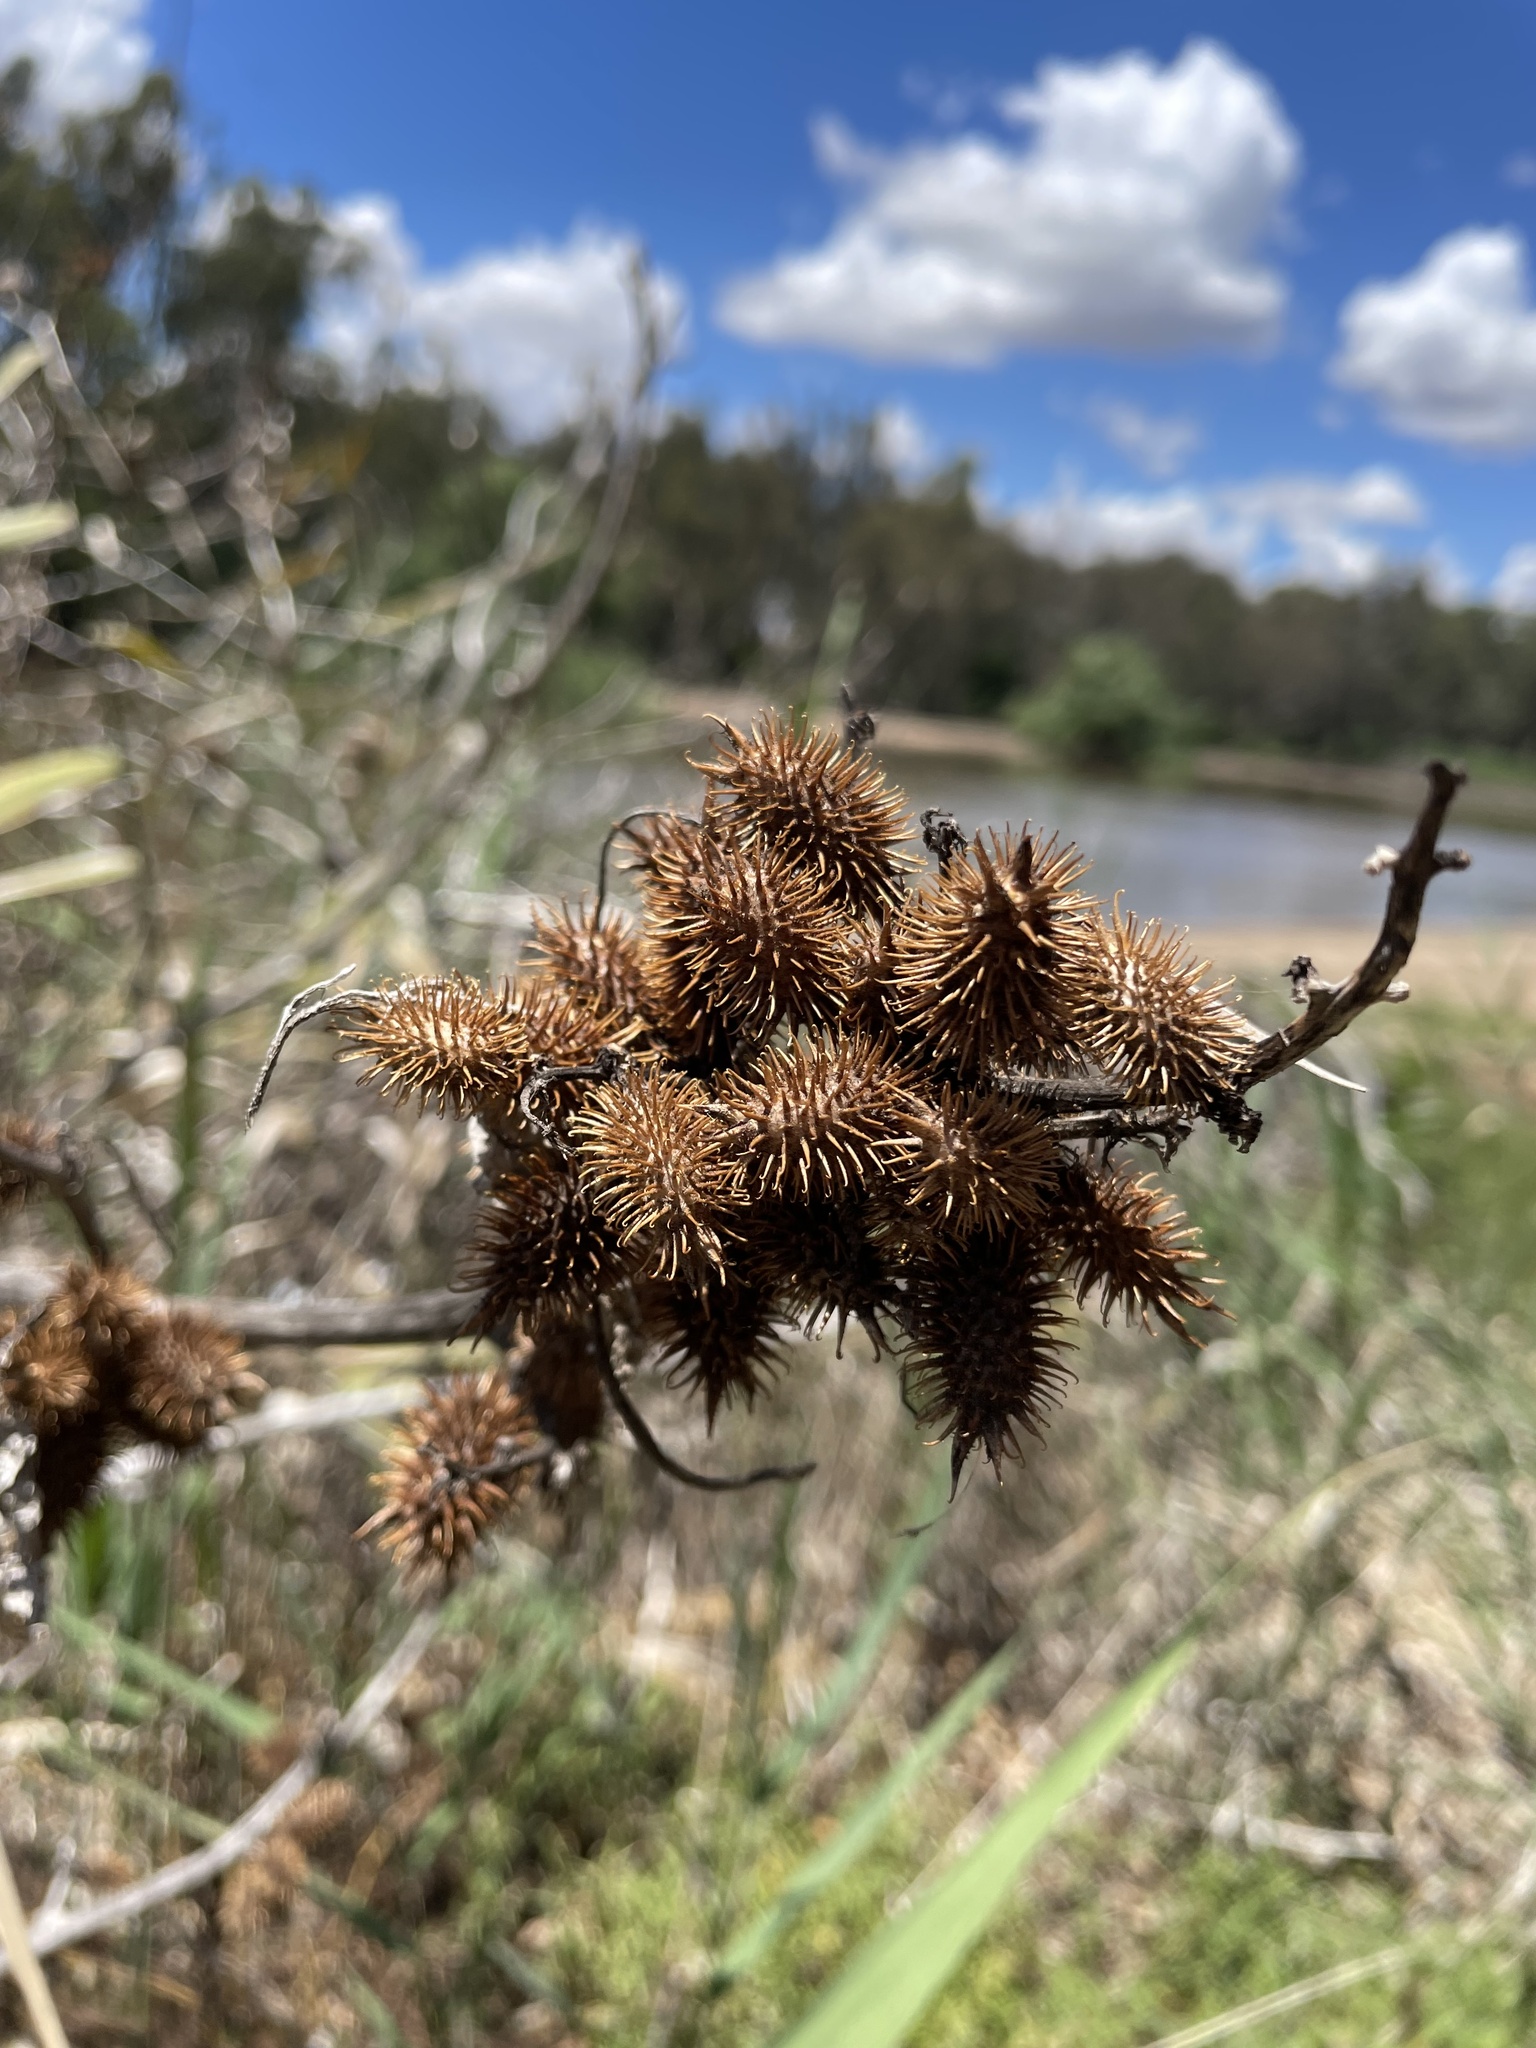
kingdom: Plantae
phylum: Tracheophyta
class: Magnoliopsida
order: Asterales
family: Asteraceae
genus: Xanthium
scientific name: Xanthium strumarium
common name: Rough cocklebur
